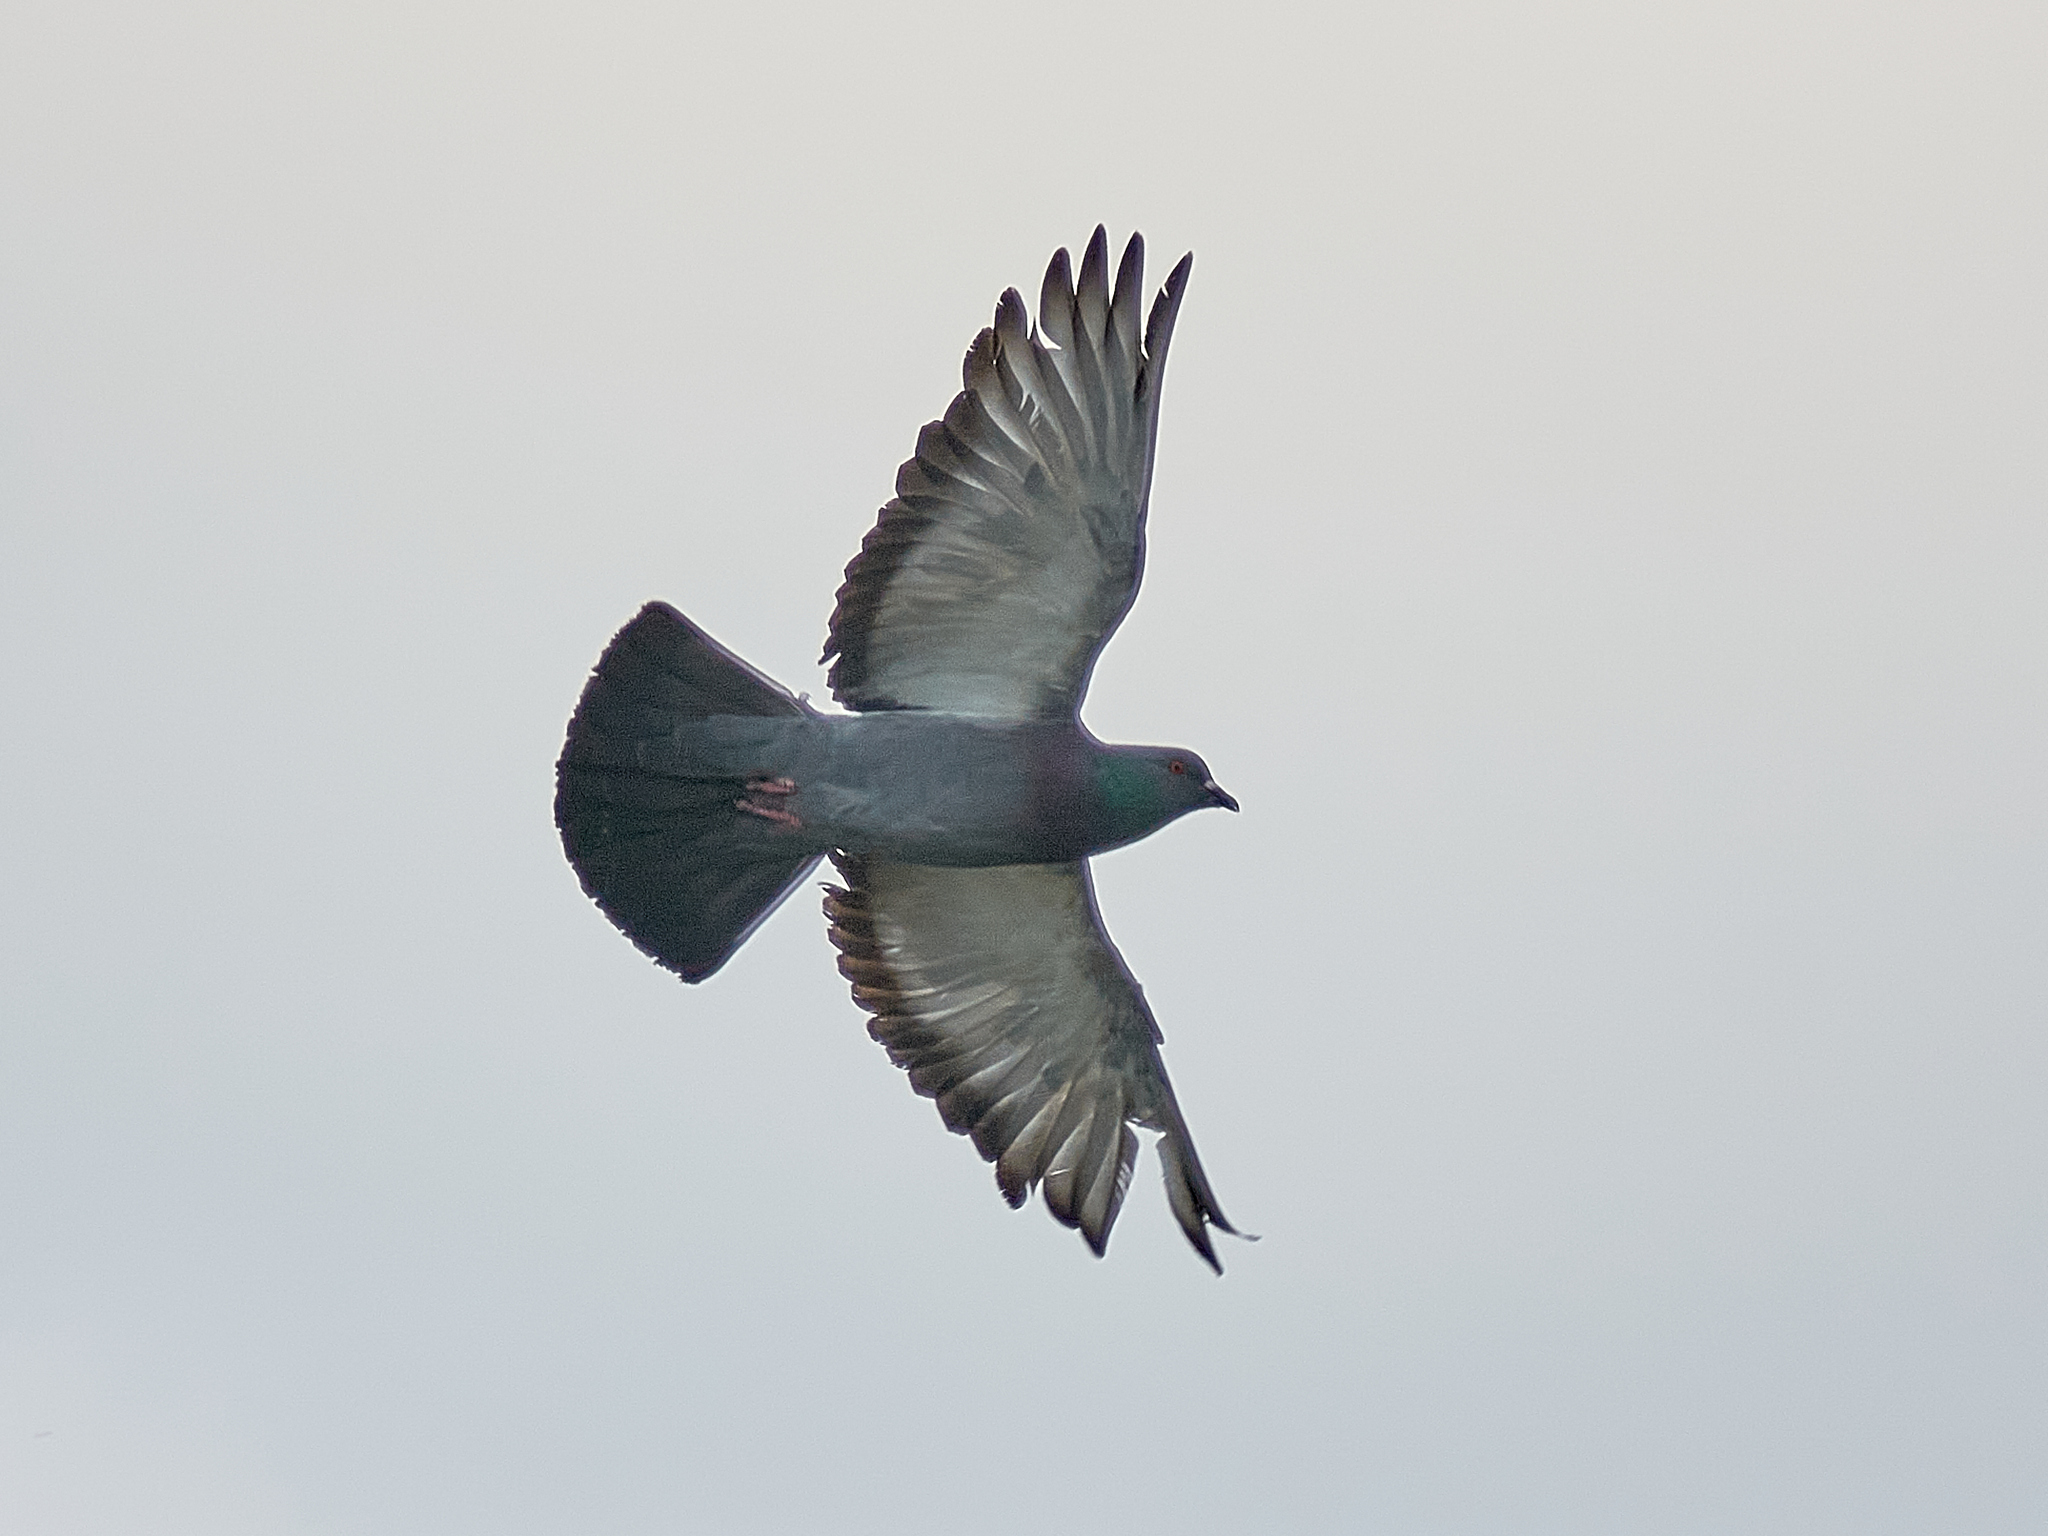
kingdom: Animalia
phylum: Chordata
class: Aves
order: Columbiformes
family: Columbidae
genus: Columba
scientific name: Columba livia
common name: Rock pigeon
